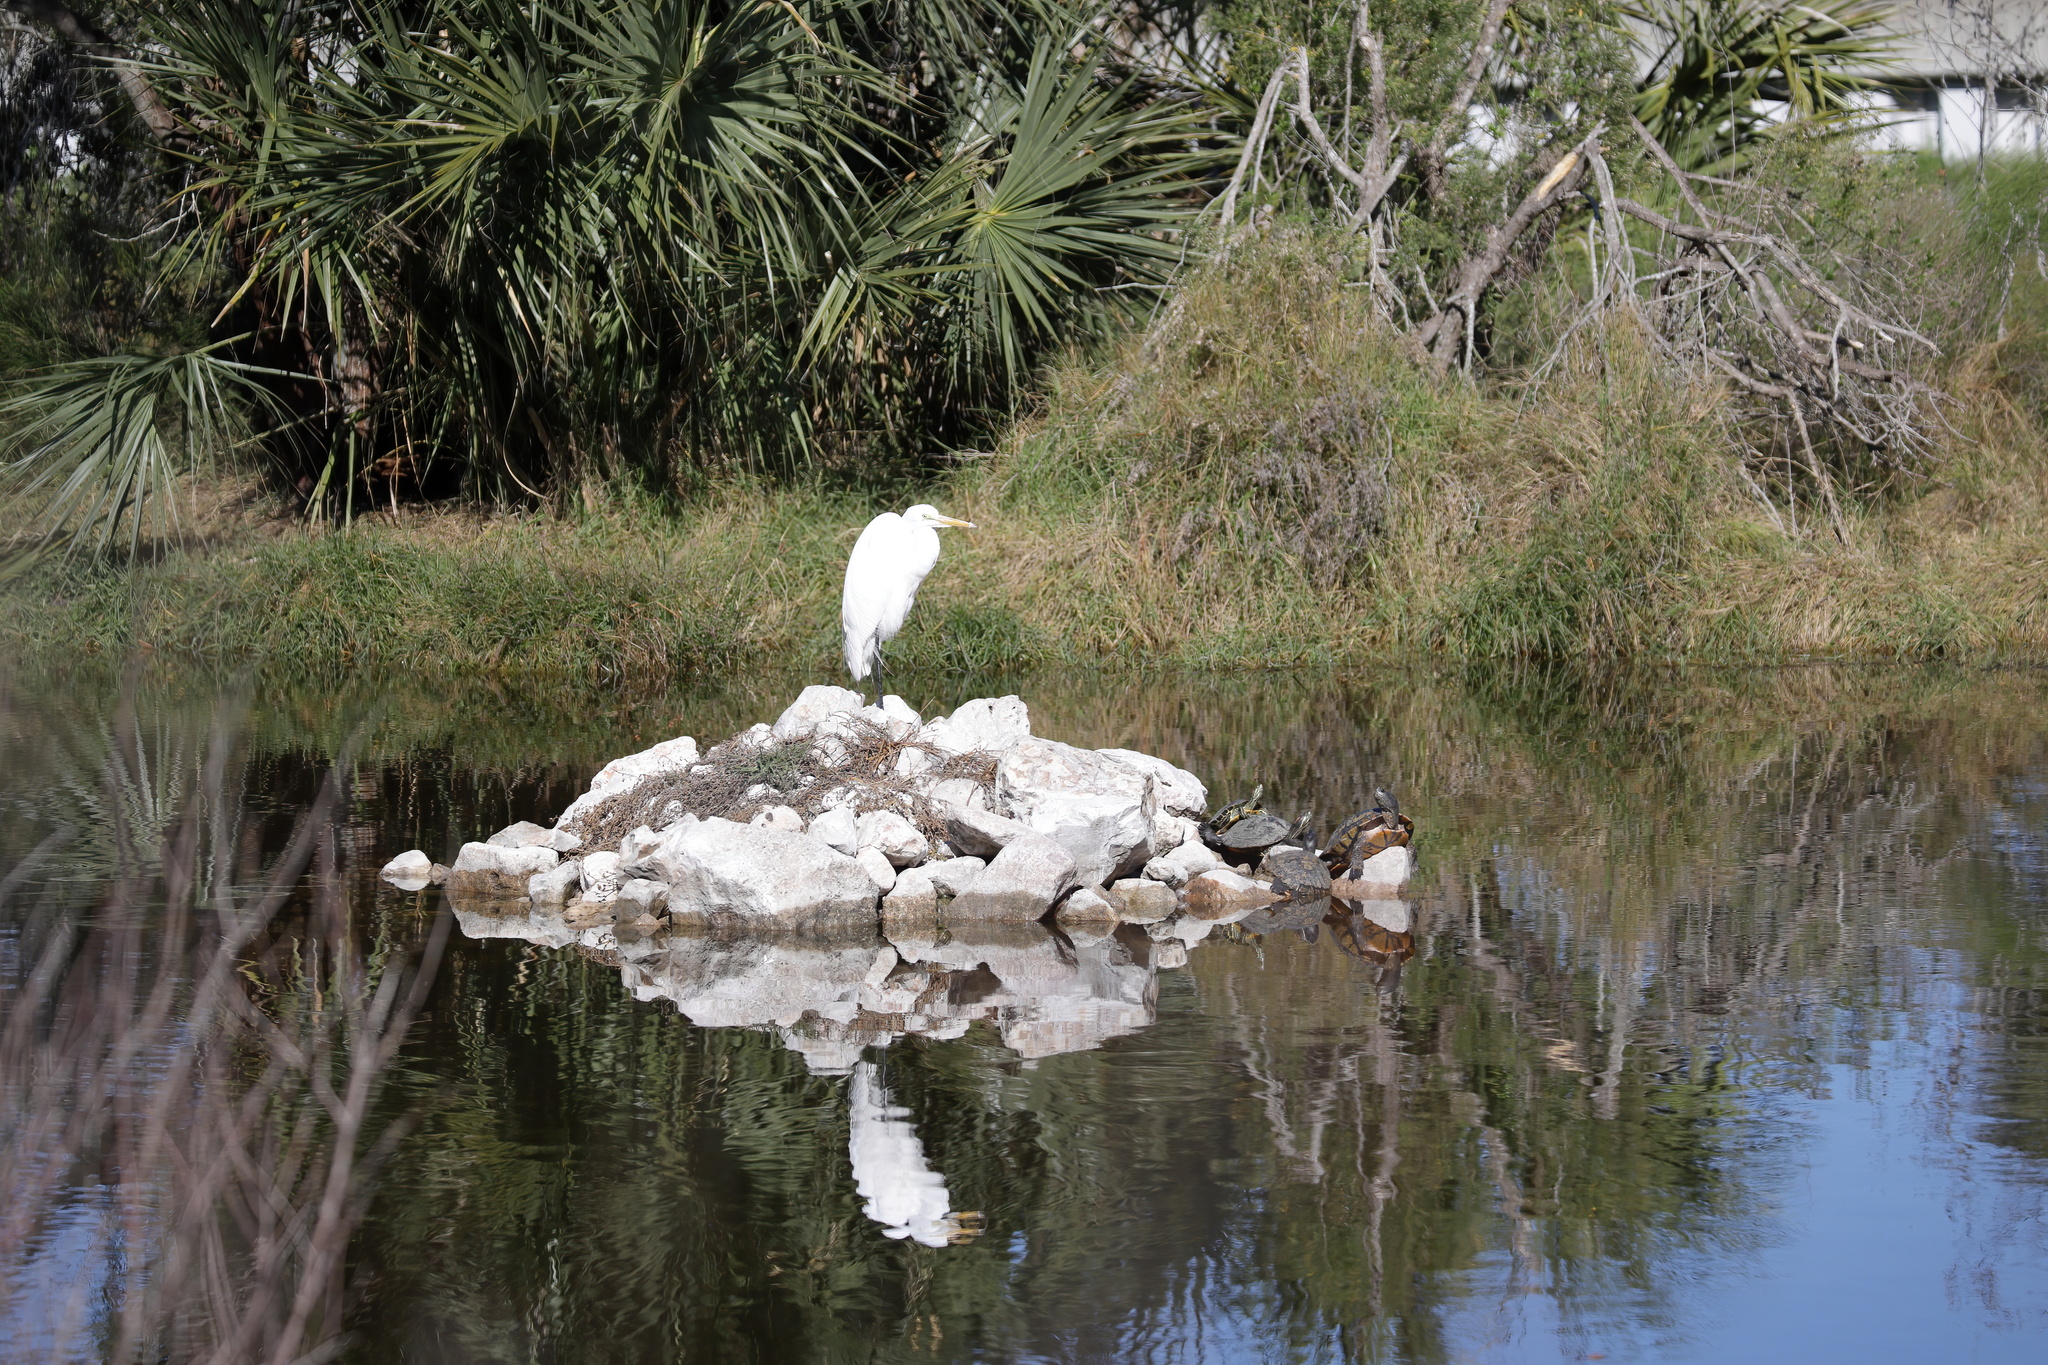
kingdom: Animalia
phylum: Chordata
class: Aves
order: Pelecaniformes
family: Ardeidae
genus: Ardea
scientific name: Ardea alba
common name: Great egret
